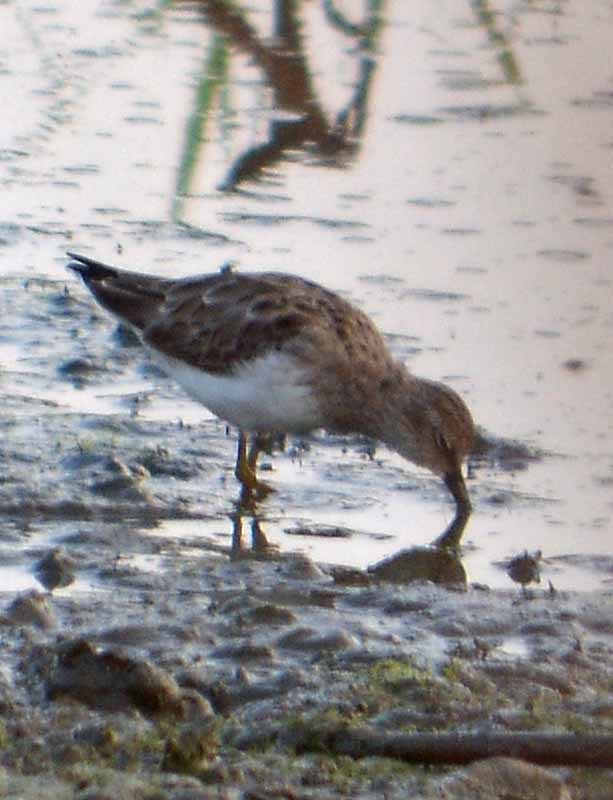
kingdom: Animalia
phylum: Chordata
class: Aves
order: Charadriiformes
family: Scolopacidae
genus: Tringa
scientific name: Tringa solitaria
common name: Solitary sandpiper
